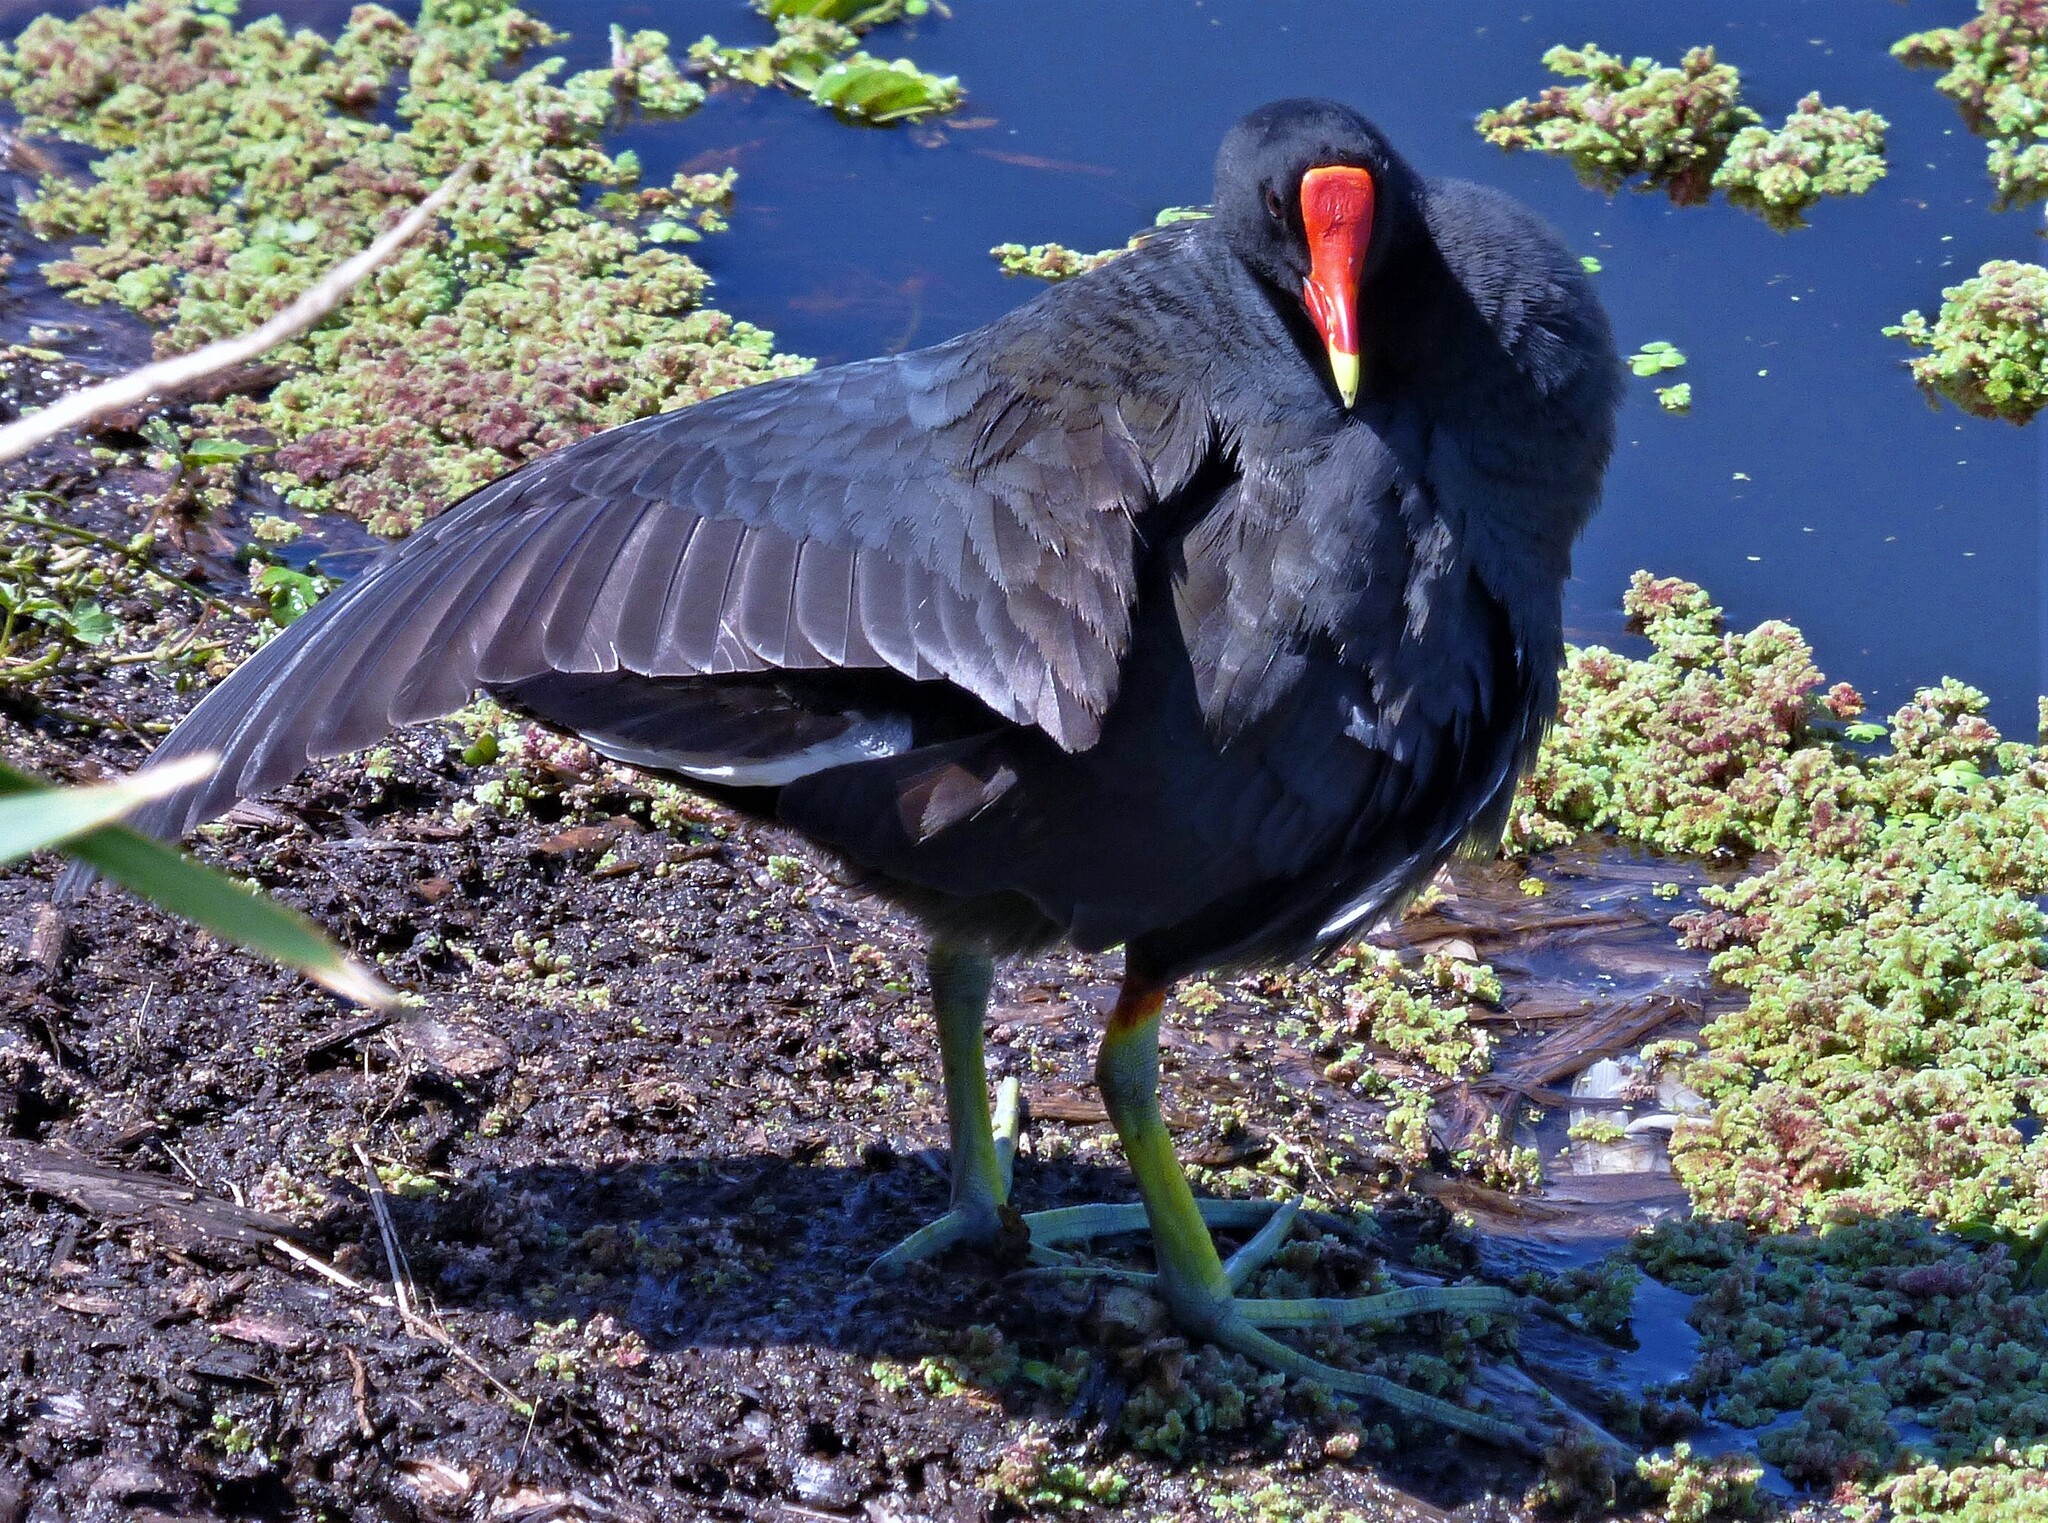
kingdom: Animalia
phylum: Chordata
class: Aves
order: Gruiformes
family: Rallidae
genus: Gallinula
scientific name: Gallinula chloropus
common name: Common moorhen
